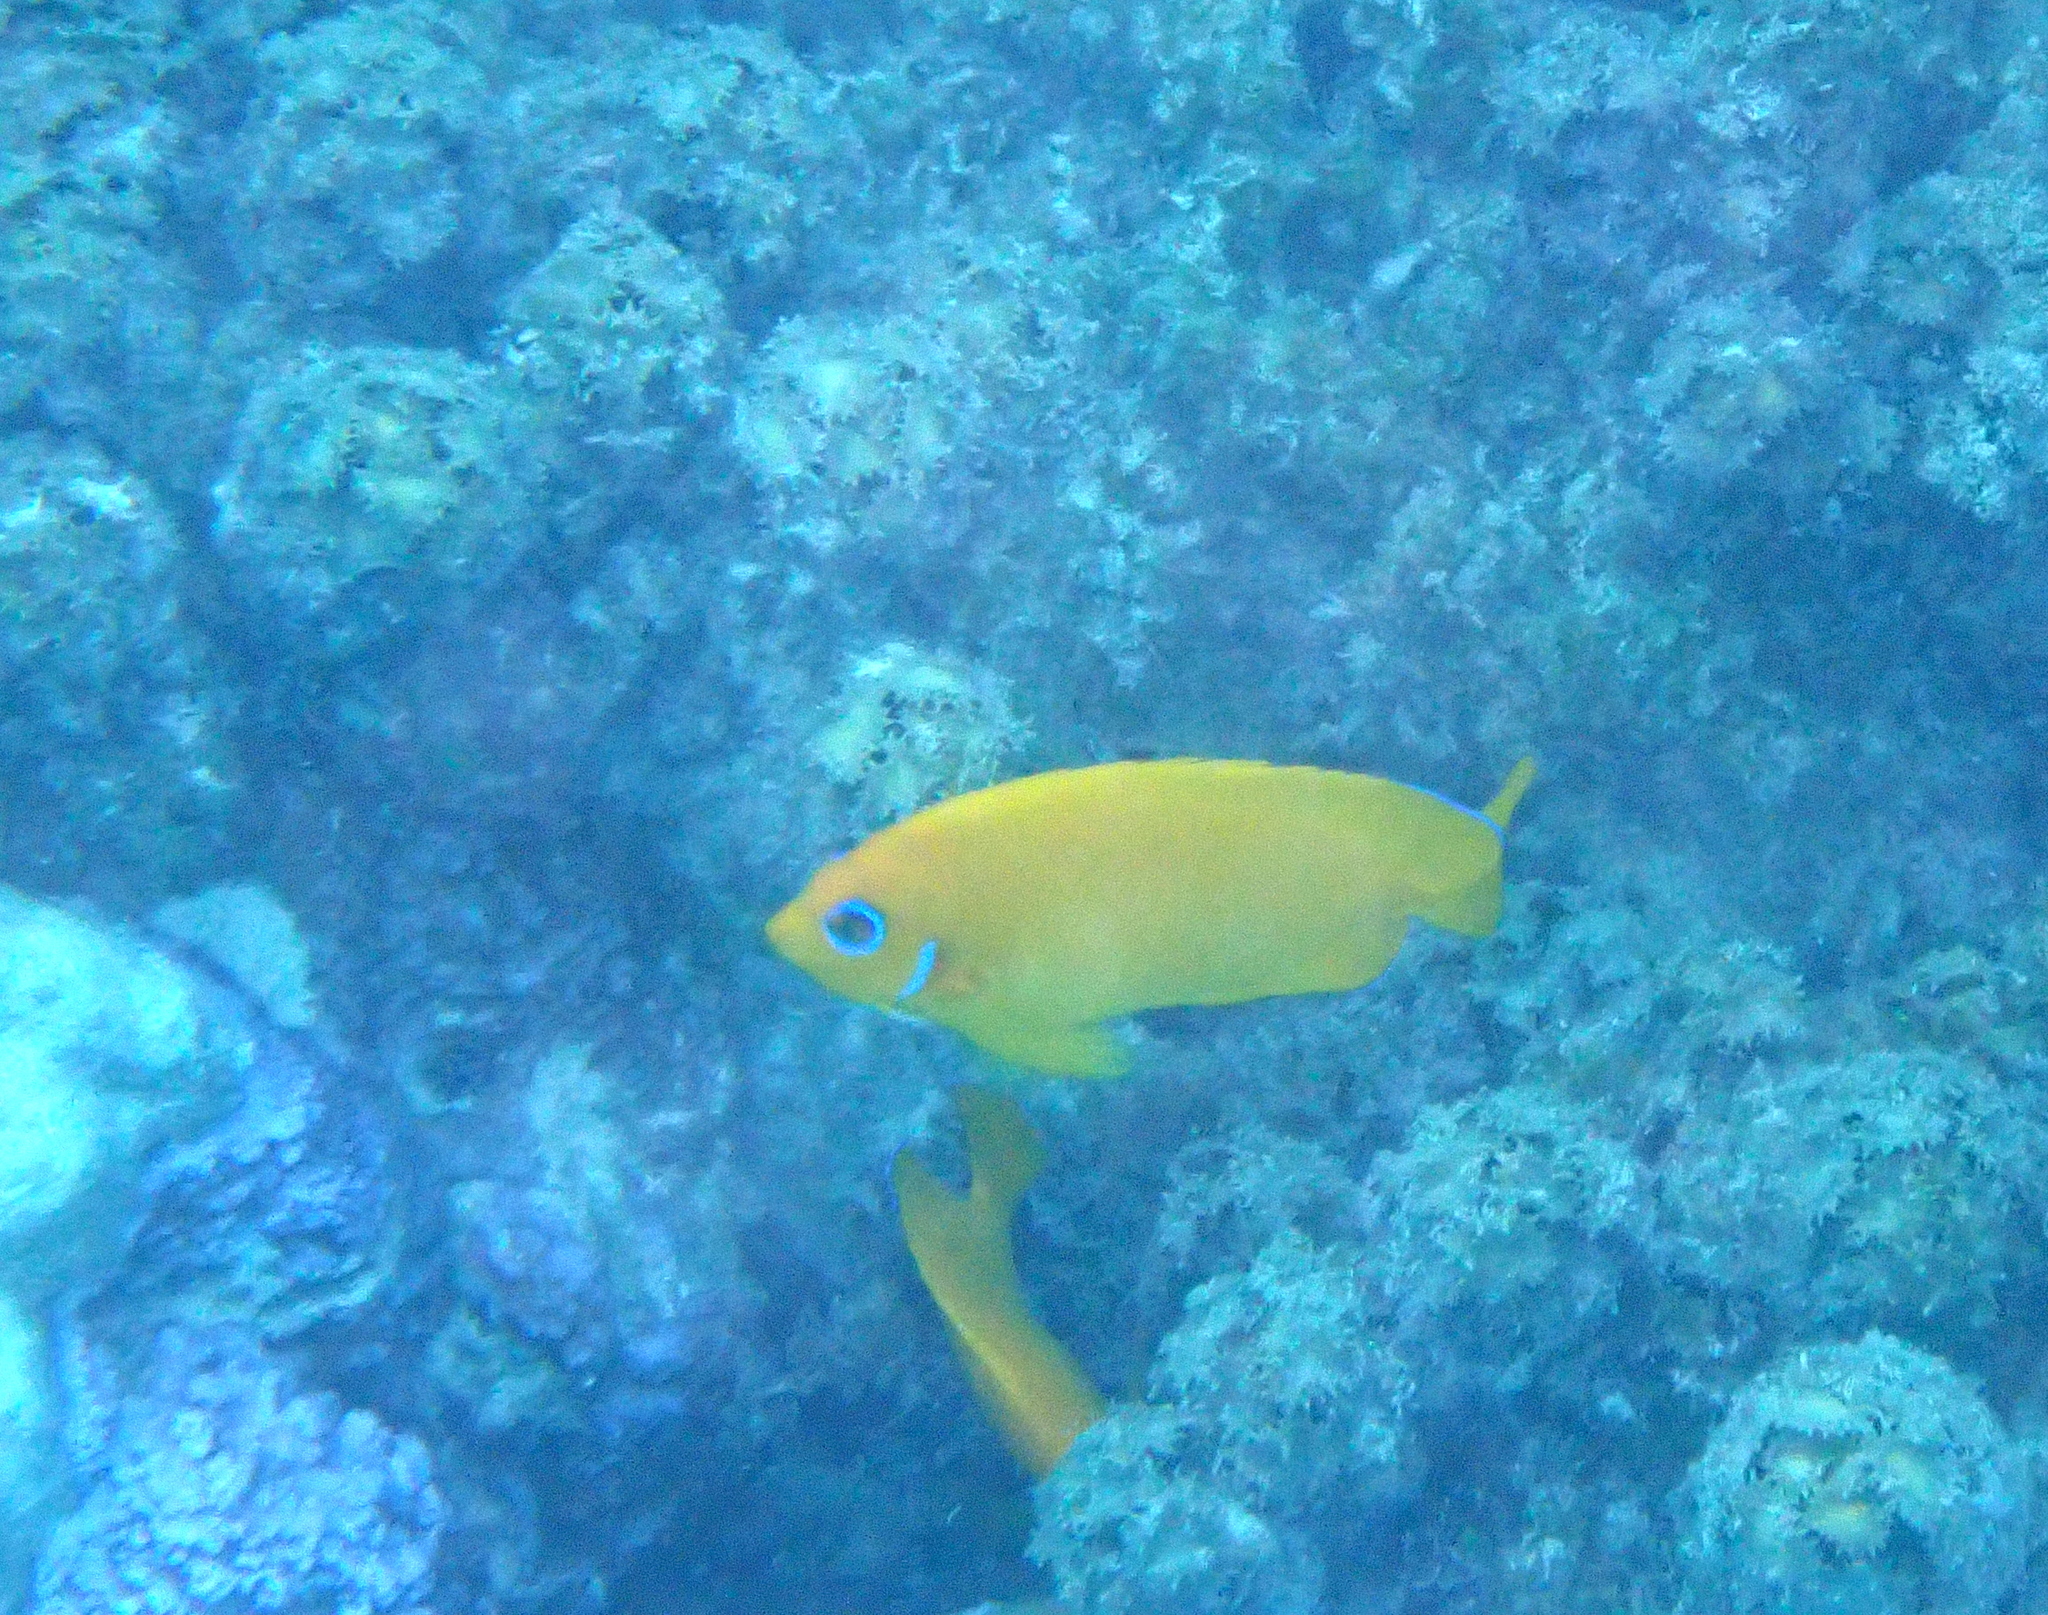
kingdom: Animalia
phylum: Chordata
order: Perciformes
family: Pomacanthidae
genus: Centropyge
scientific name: Centropyge flavissima
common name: Lemonpeel angelfish
